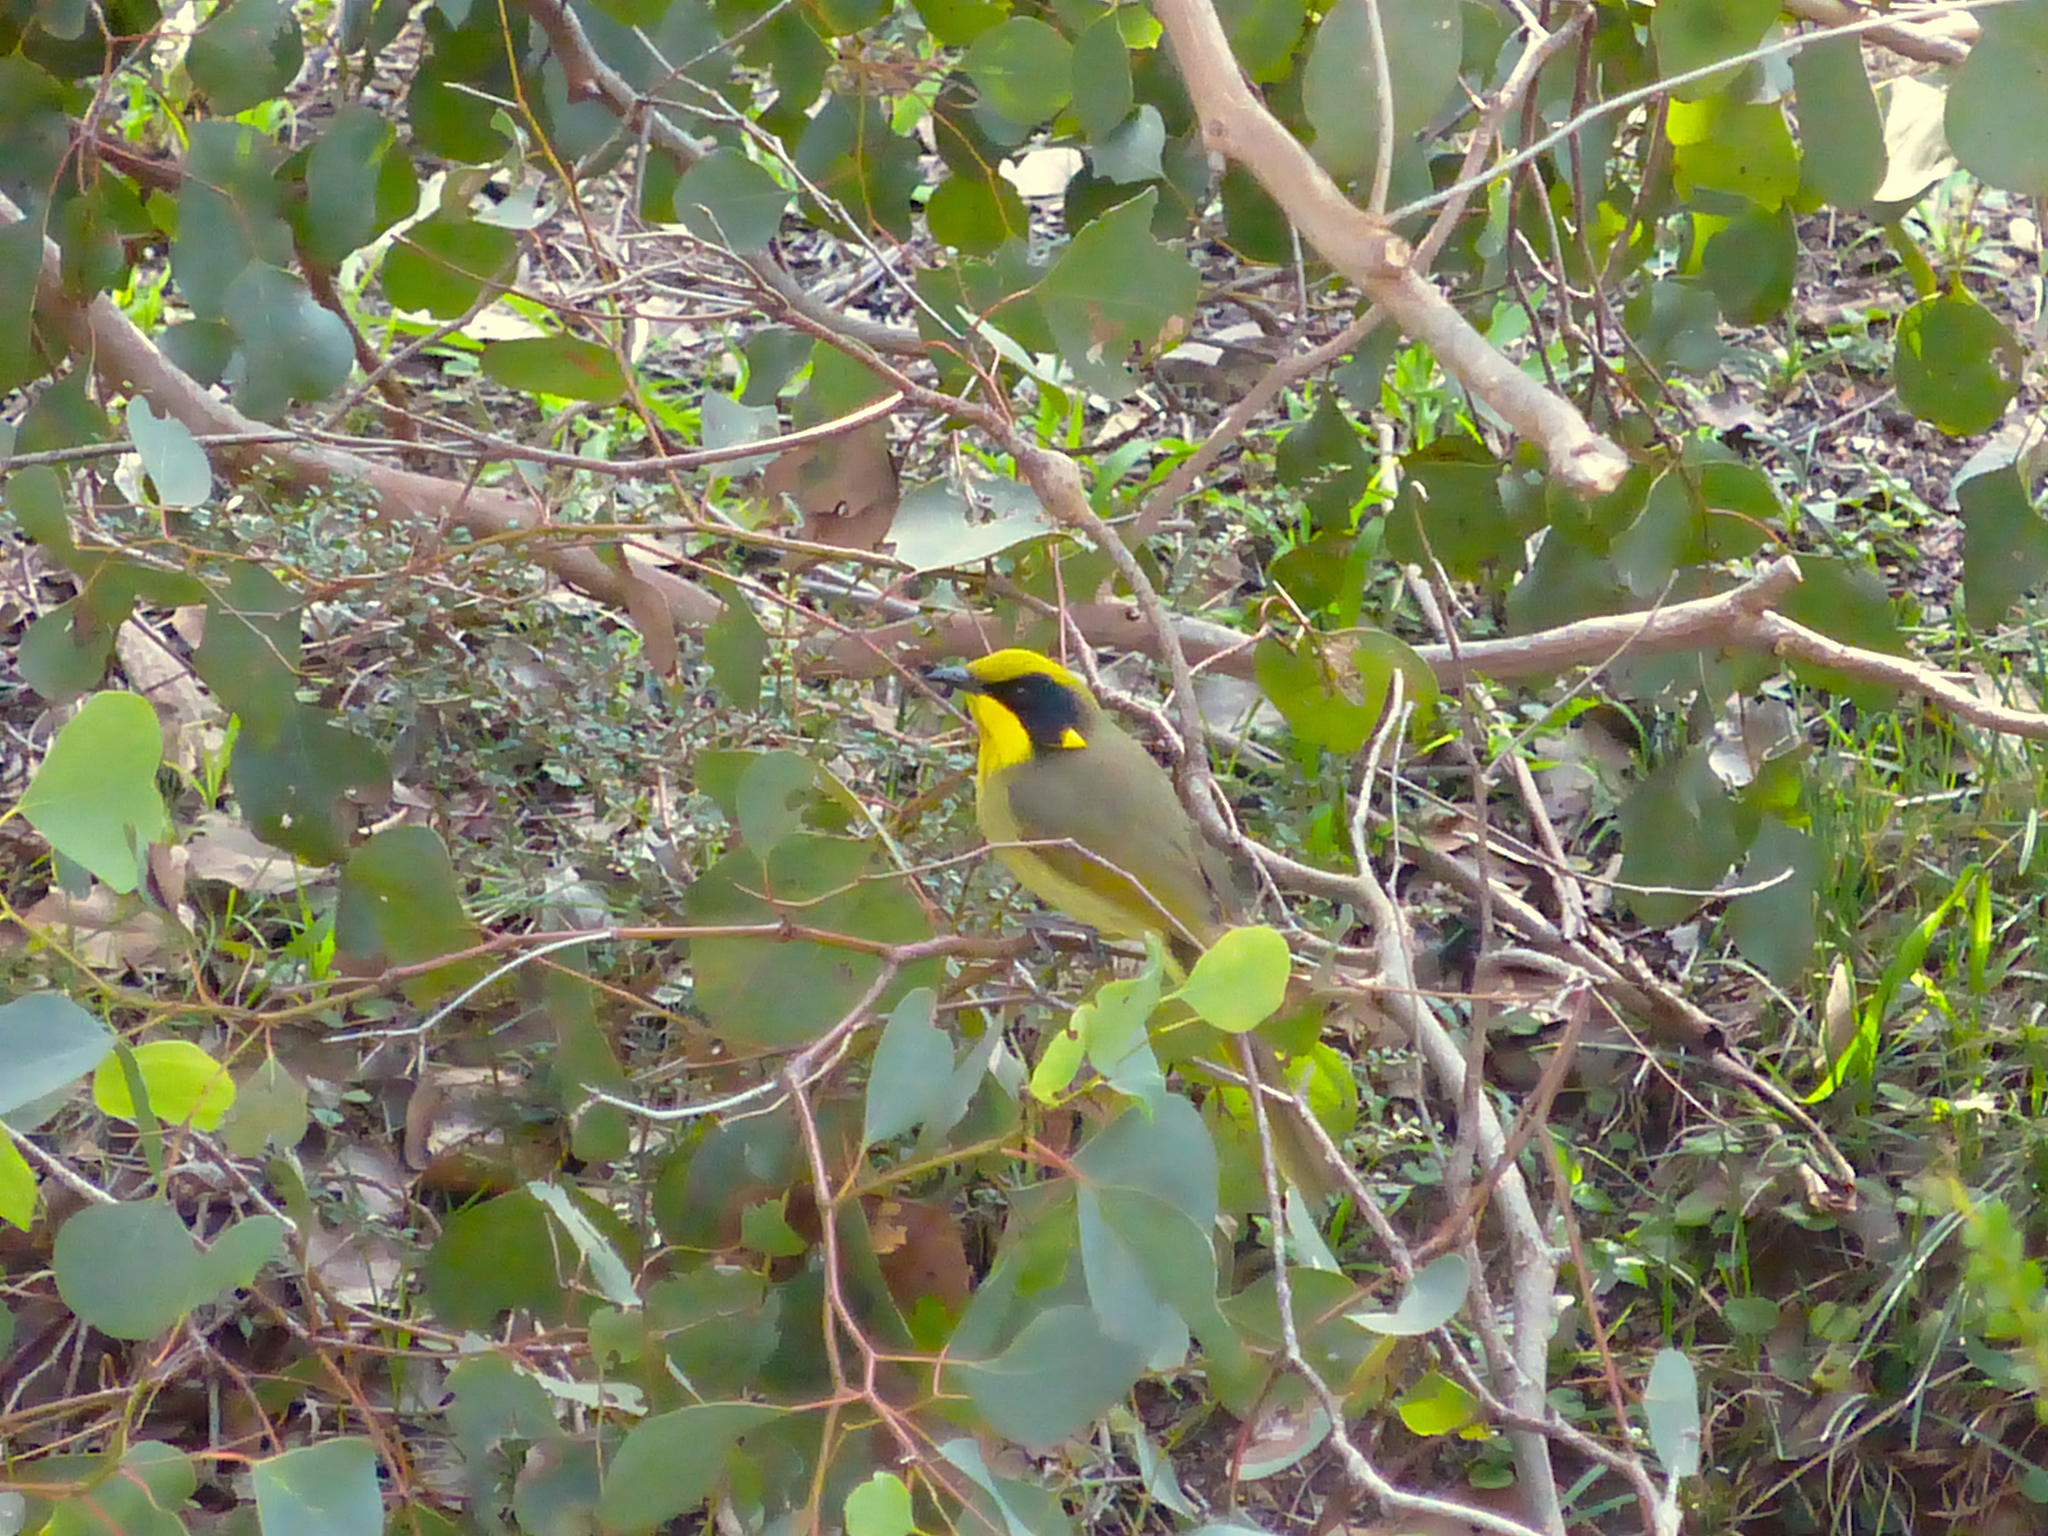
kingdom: Animalia
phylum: Chordata
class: Aves
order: Passeriformes
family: Meliphagidae
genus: Lichenostomus
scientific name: Lichenostomus melanops
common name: Yellow-tufted honeyeater
